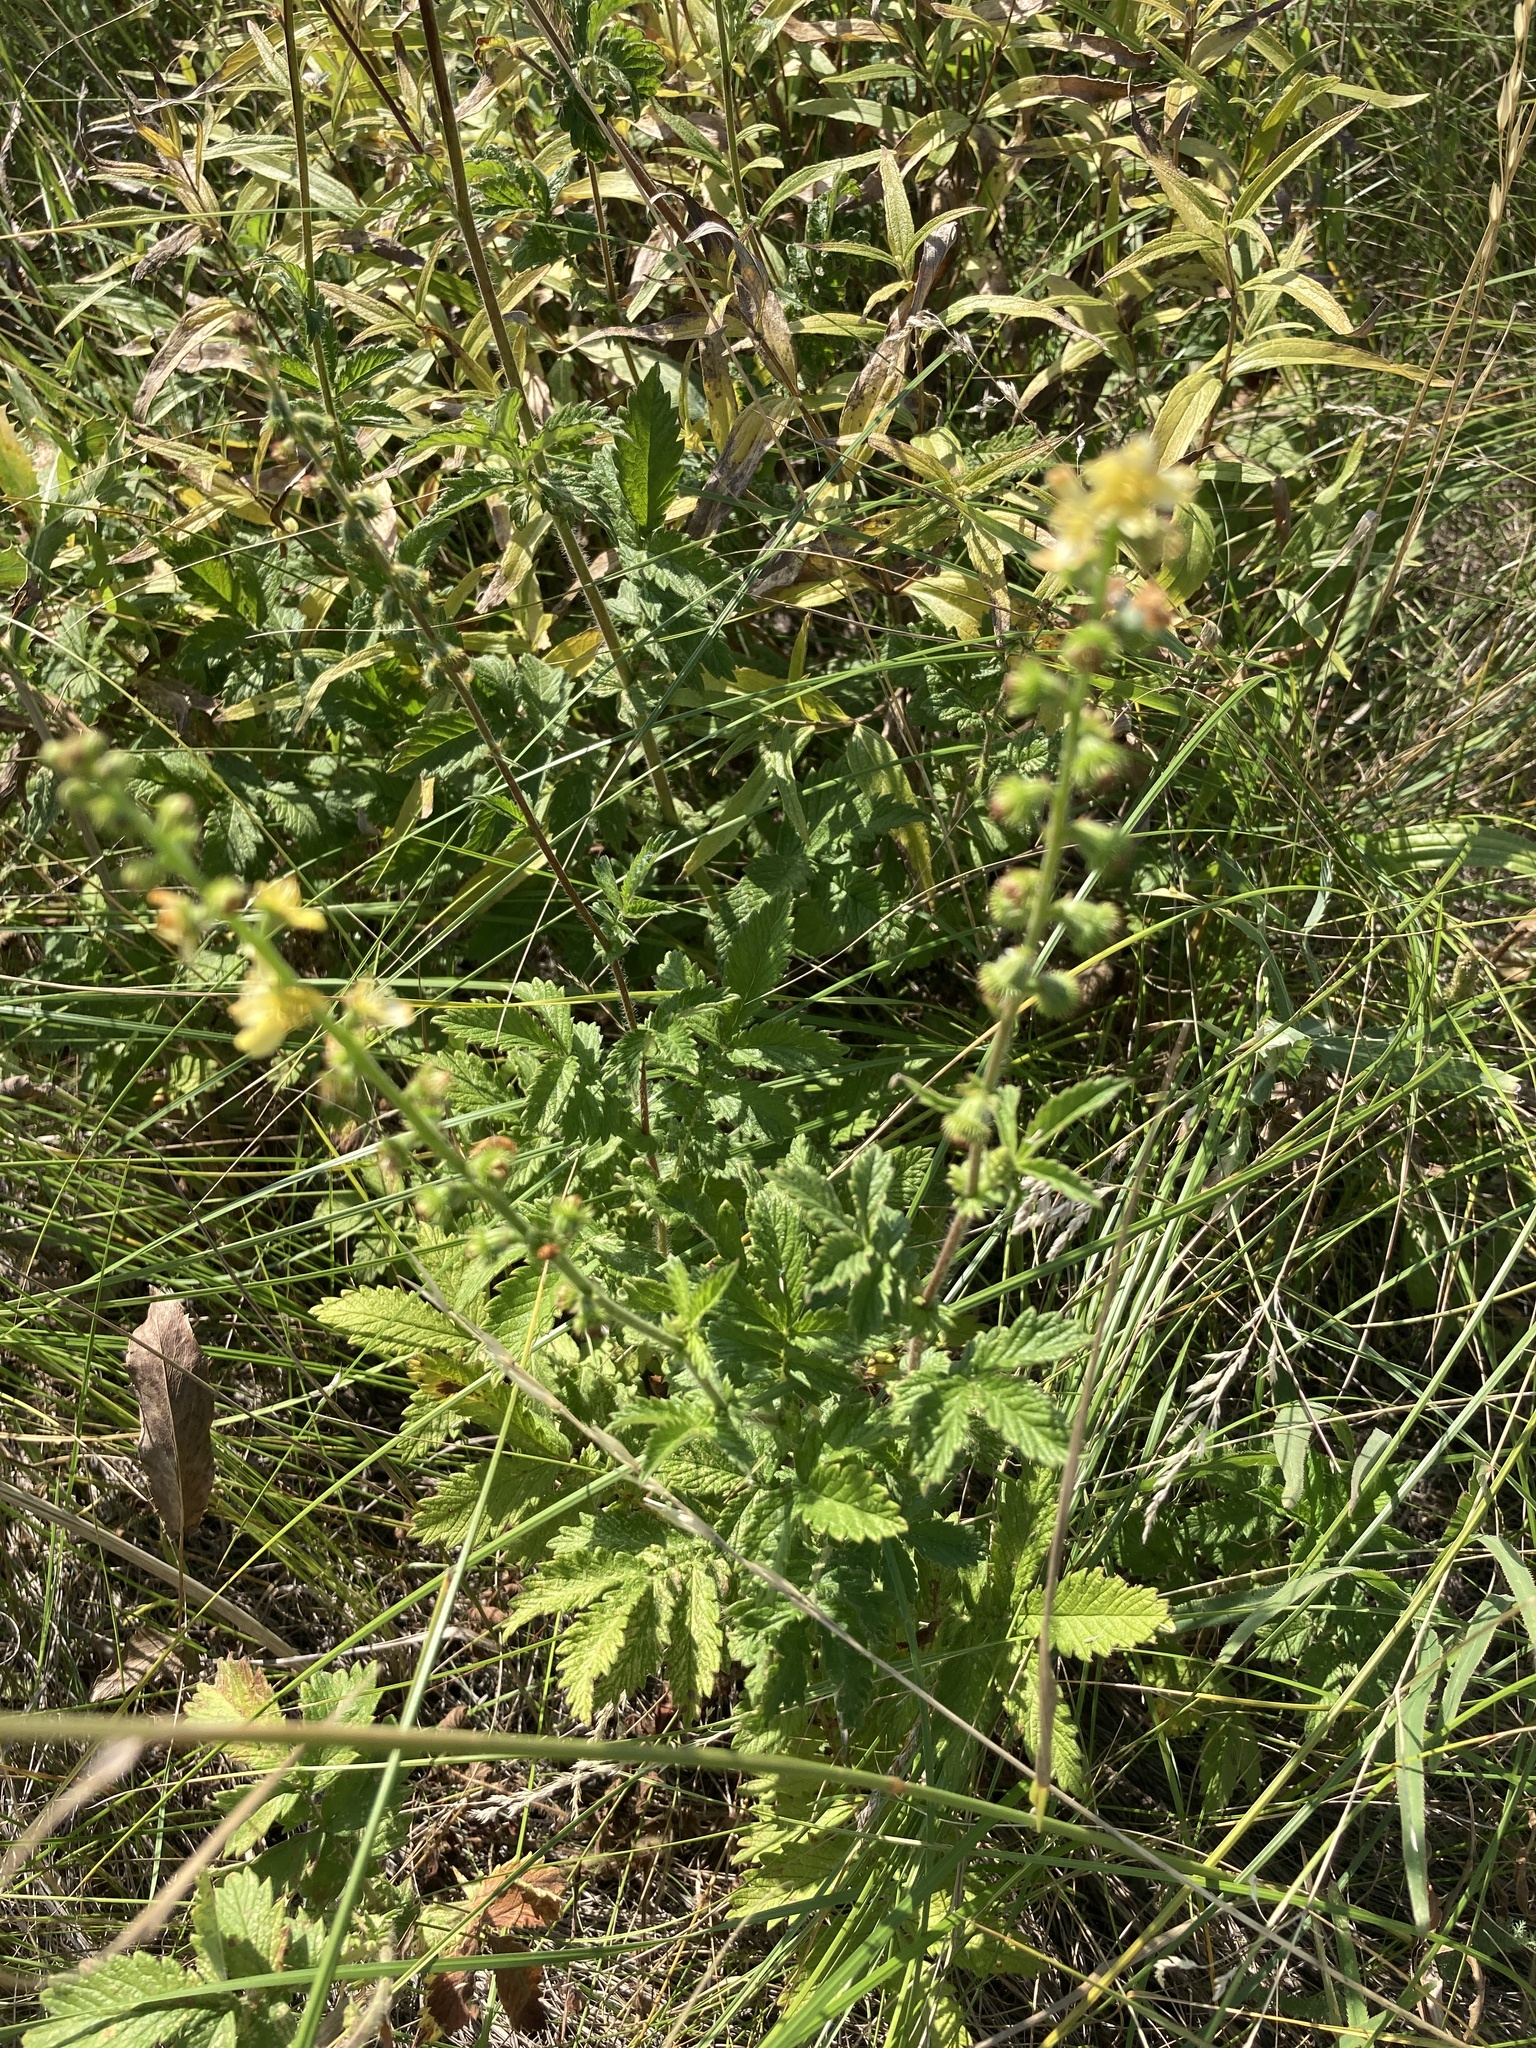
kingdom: Plantae
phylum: Tracheophyta
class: Magnoliopsida
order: Rosales
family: Rosaceae
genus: Agrimonia
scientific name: Agrimonia eupatoria
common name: Agrimony
